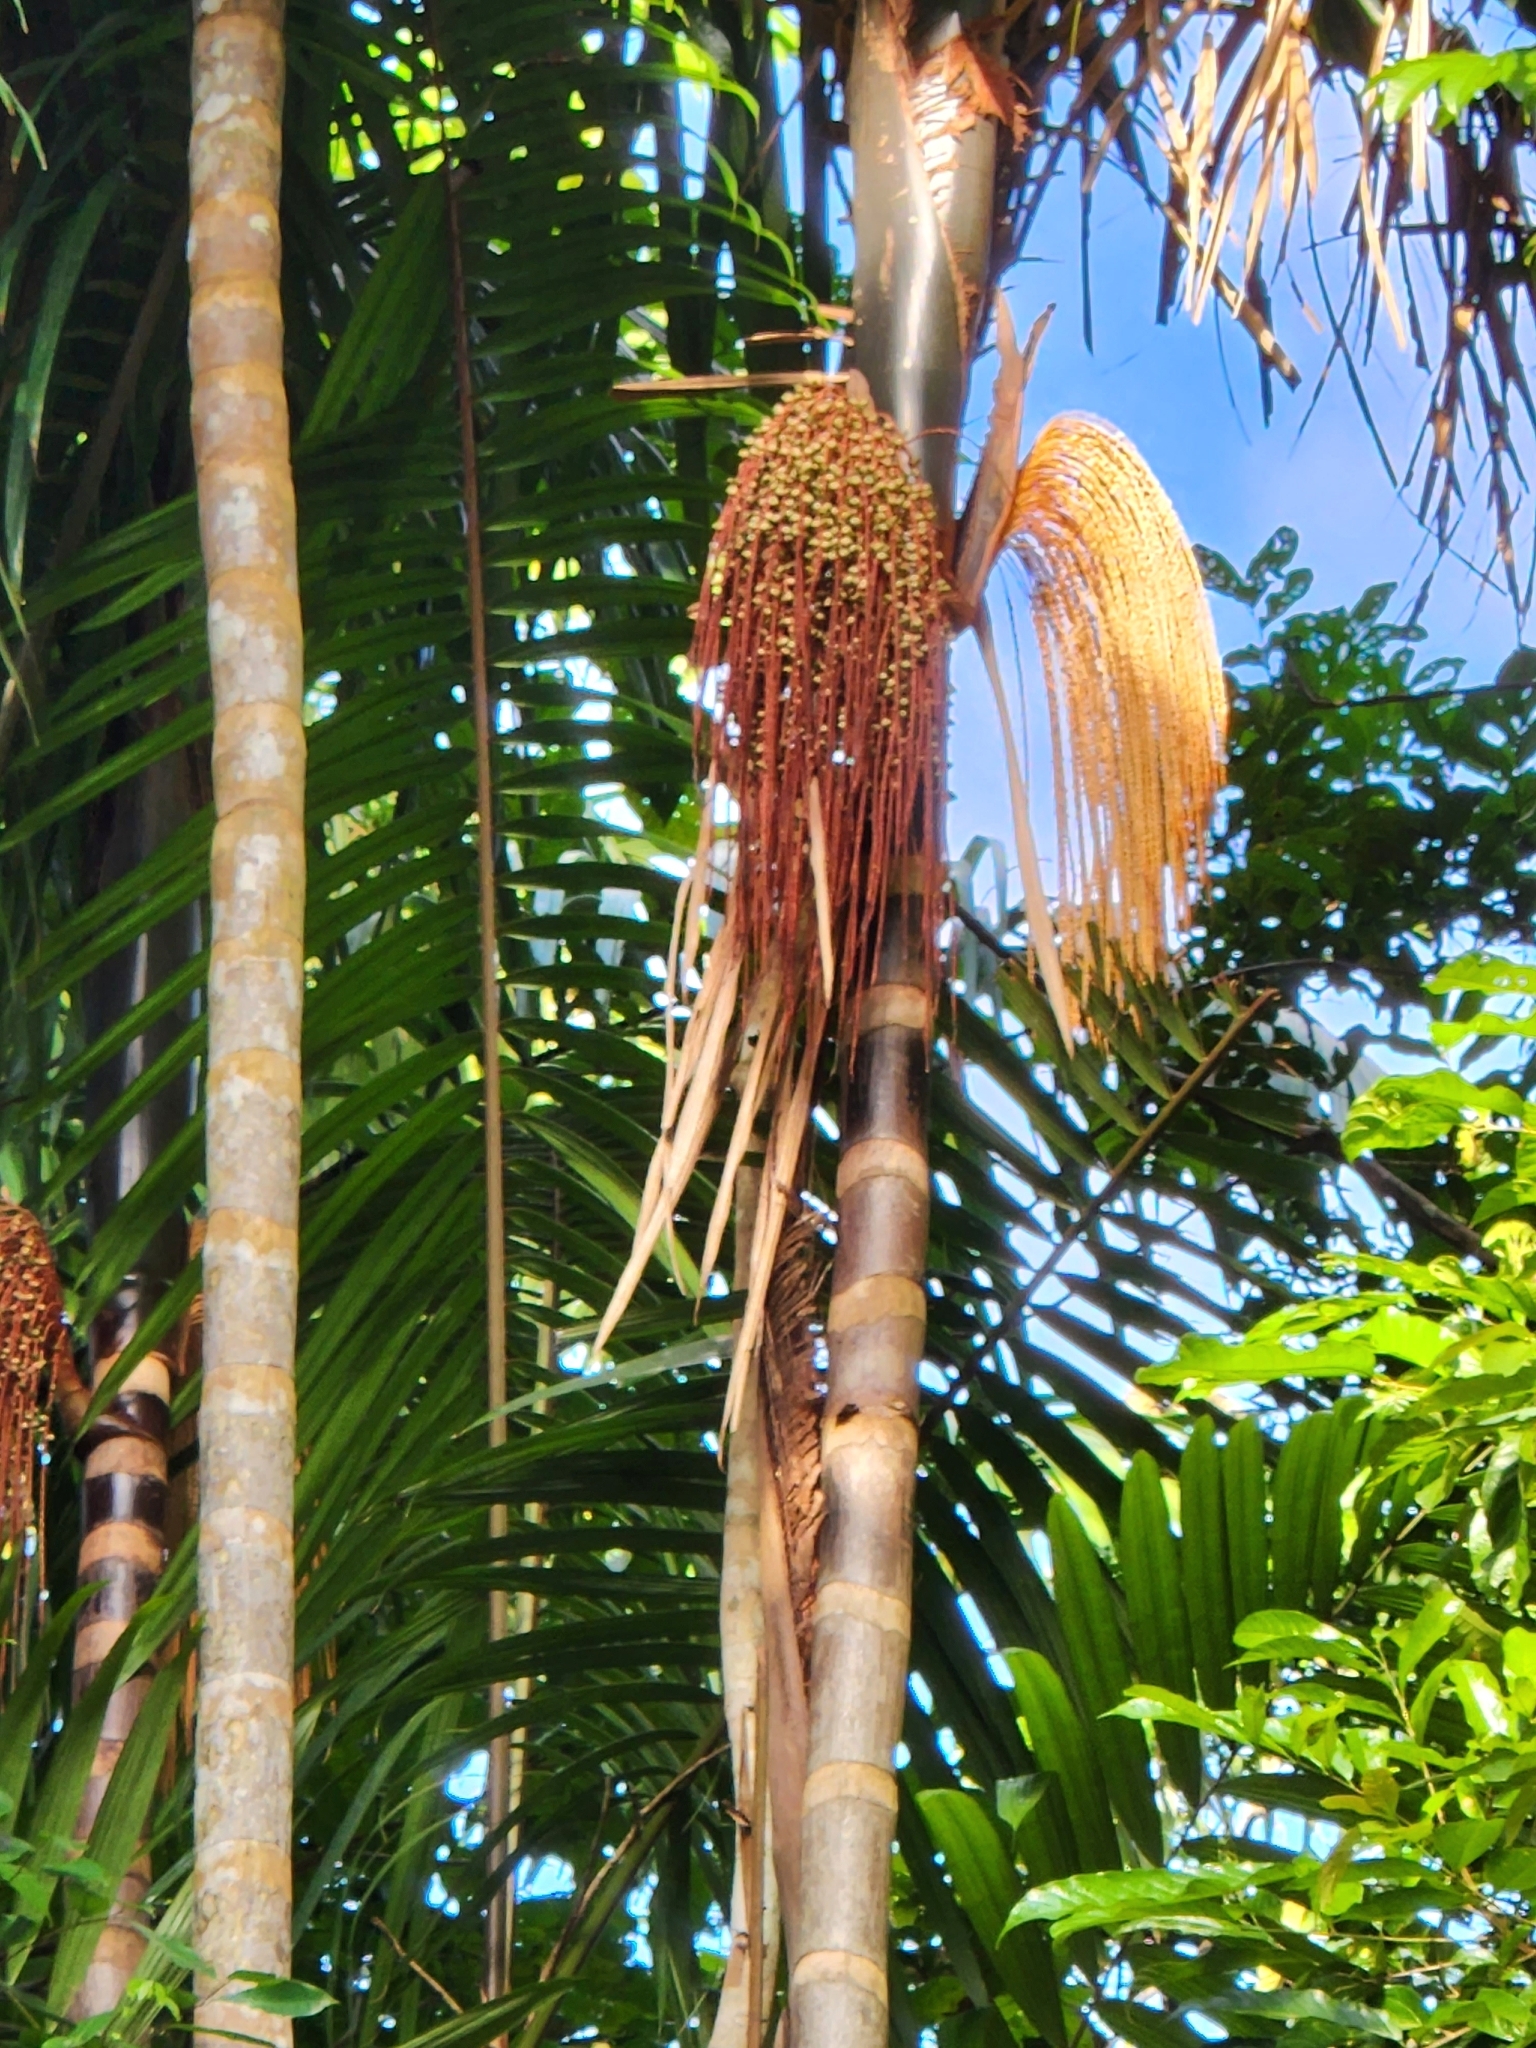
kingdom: Plantae
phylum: Tracheophyta
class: Liliopsida
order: Arecales
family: Arecaceae
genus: Oenocarpus
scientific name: Oenocarpus mapora
